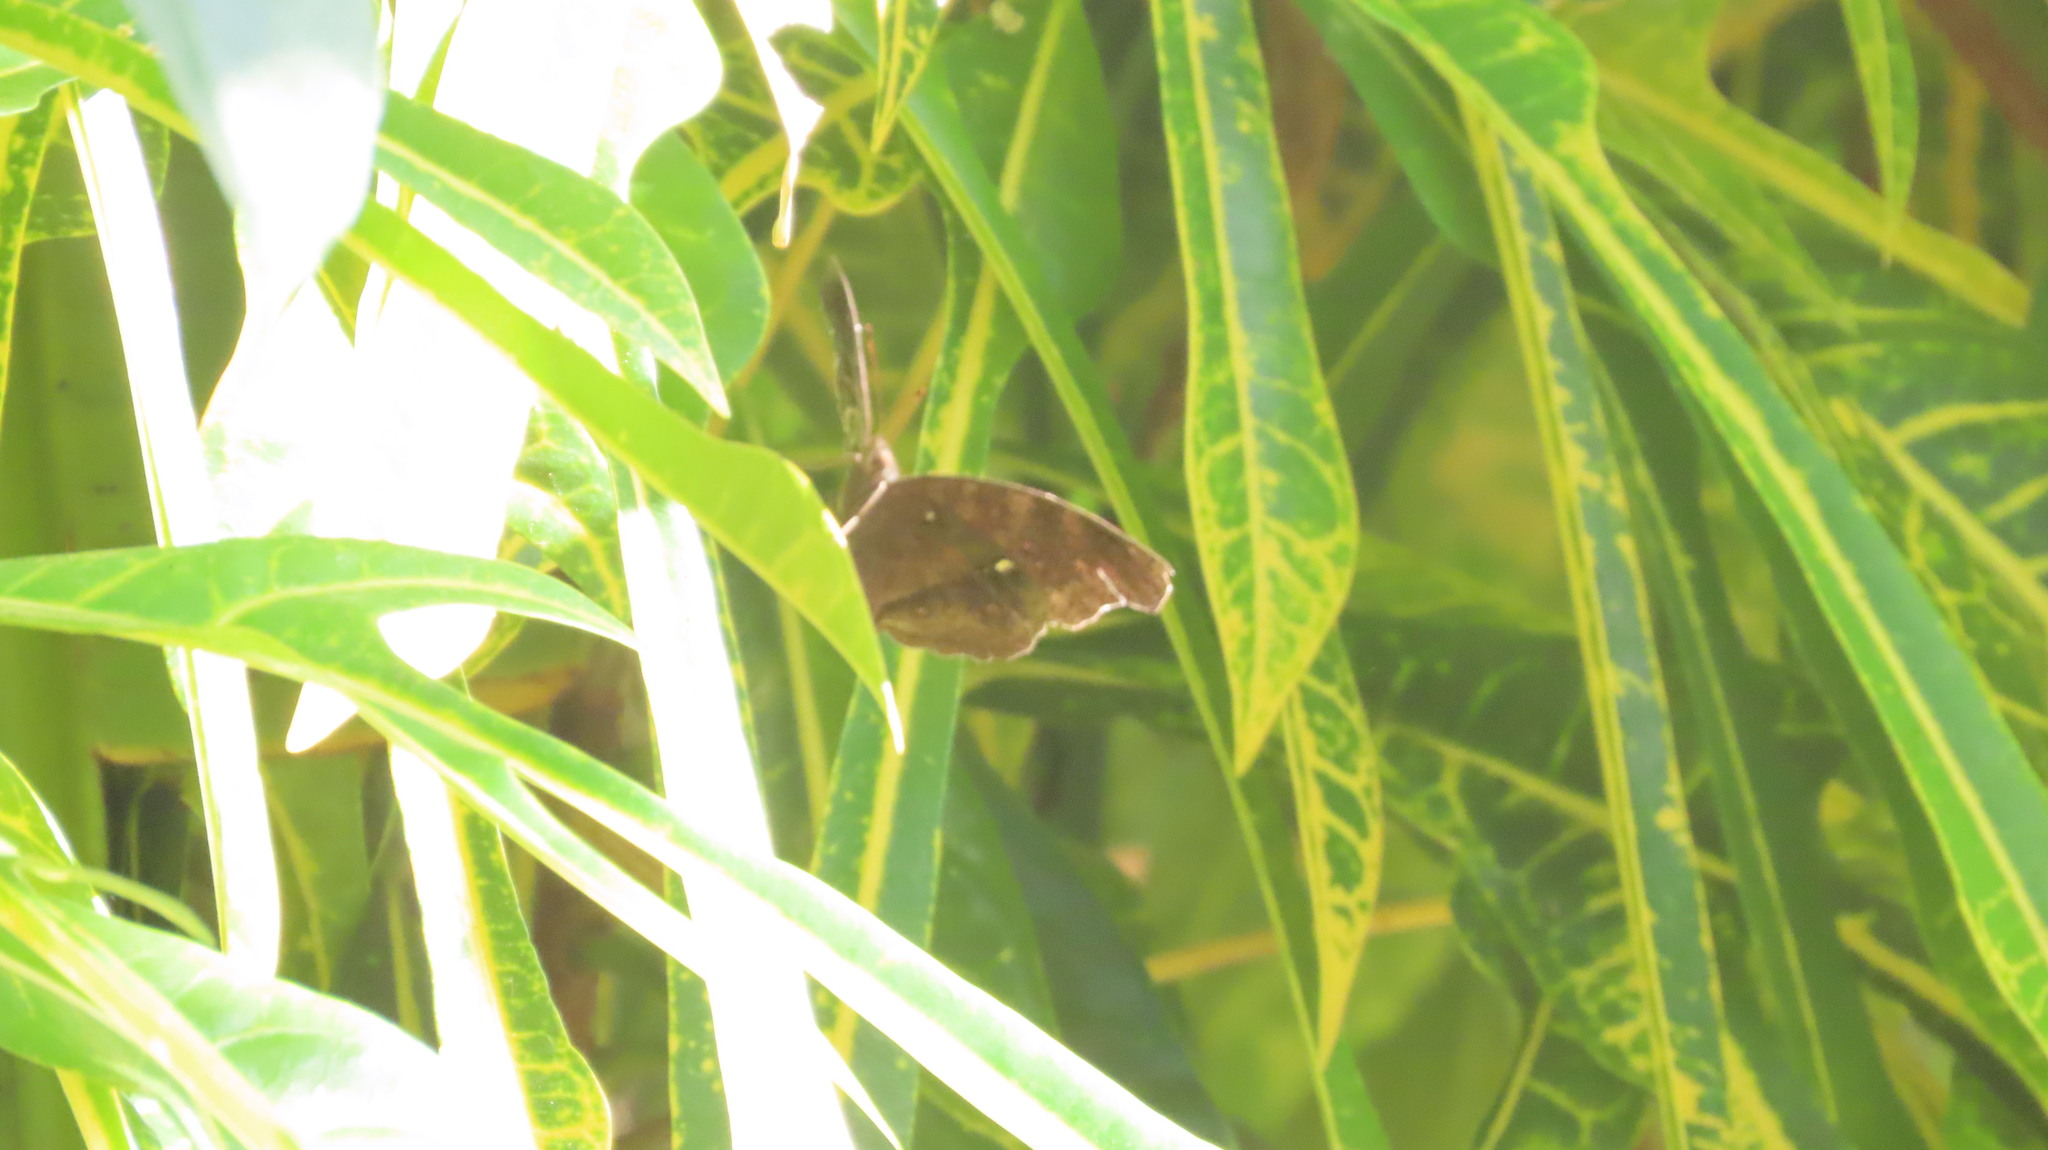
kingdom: Animalia
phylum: Arthropoda
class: Insecta
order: Lepidoptera
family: Nymphalidae
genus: Junonia
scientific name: Junonia iphita
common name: Chocolate pansy
